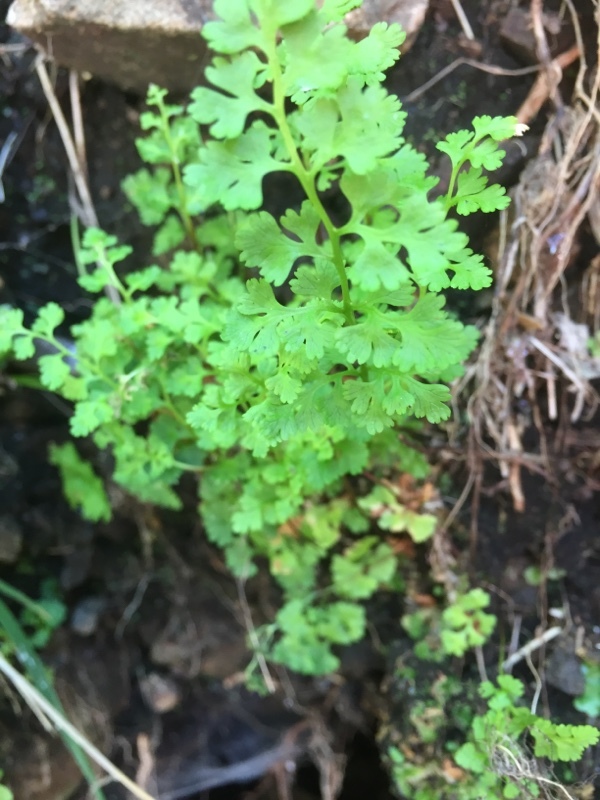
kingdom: Plantae
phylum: Tracheophyta
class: Polypodiopsida
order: Polypodiales
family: Pteridaceae
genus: Anogramma
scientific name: Anogramma leptophylla
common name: Jersey fern
